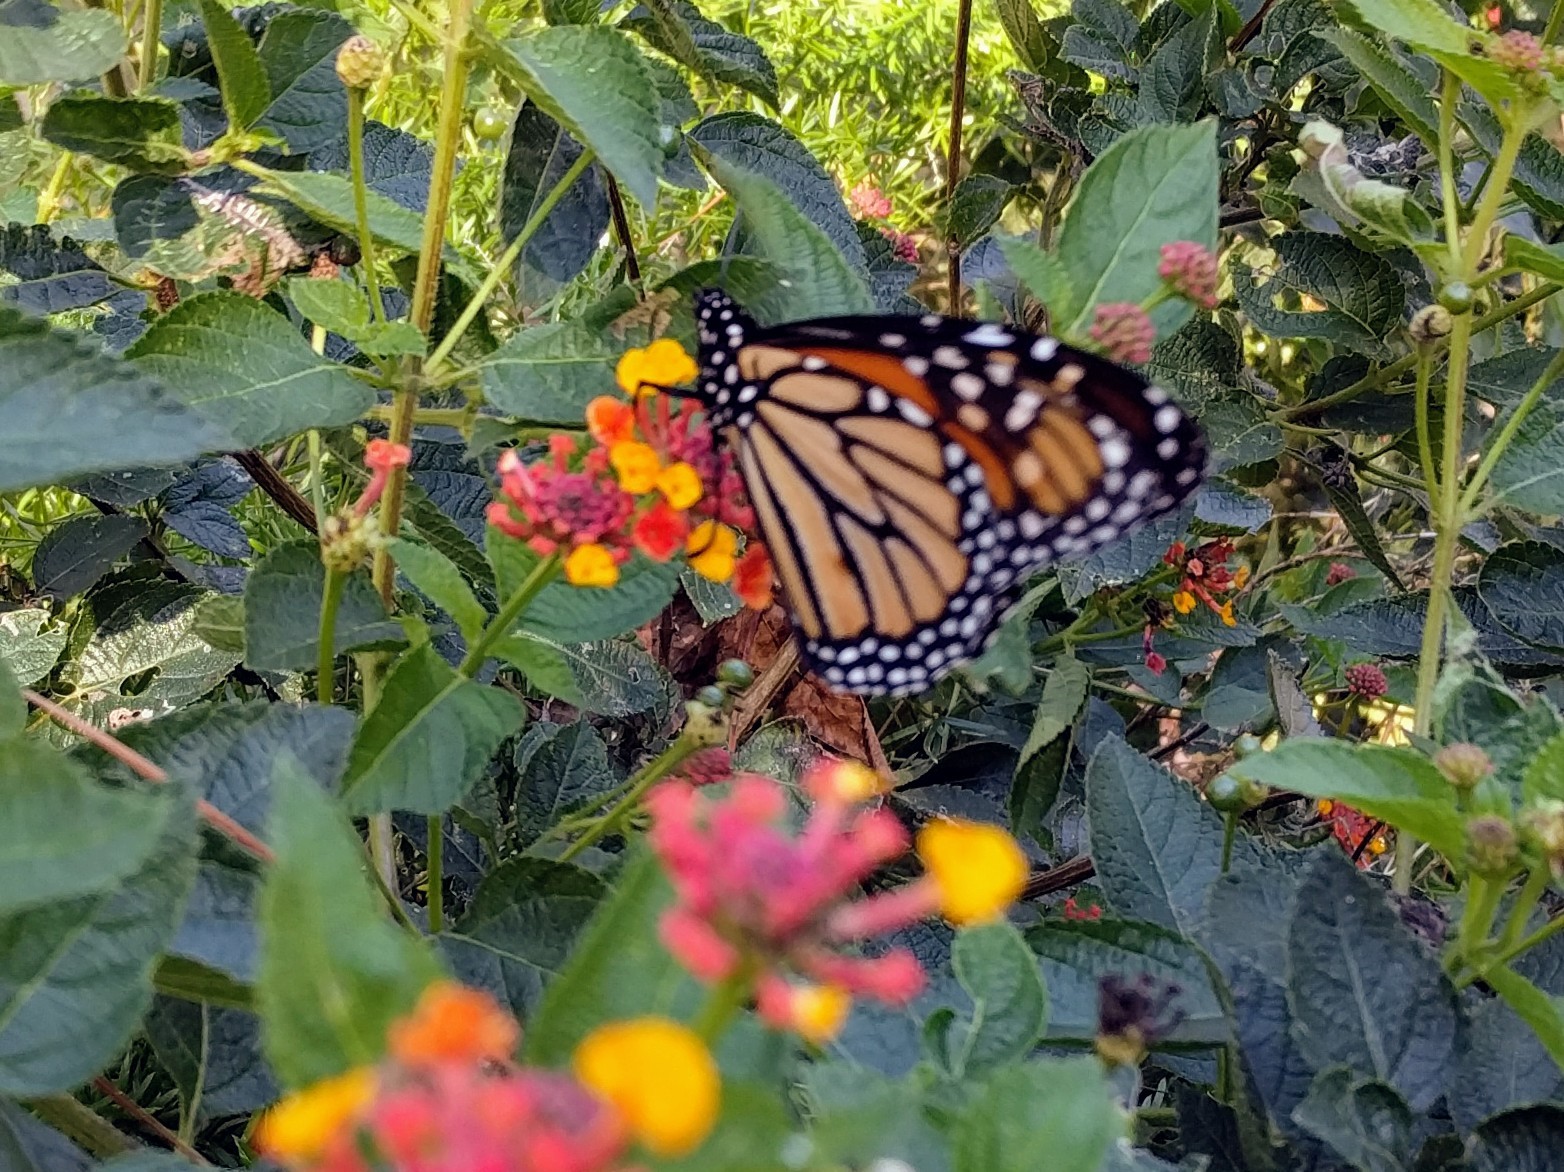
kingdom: Animalia
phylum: Arthropoda
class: Insecta
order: Lepidoptera
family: Nymphalidae
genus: Danaus
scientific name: Danaus plexippus
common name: Monarch
